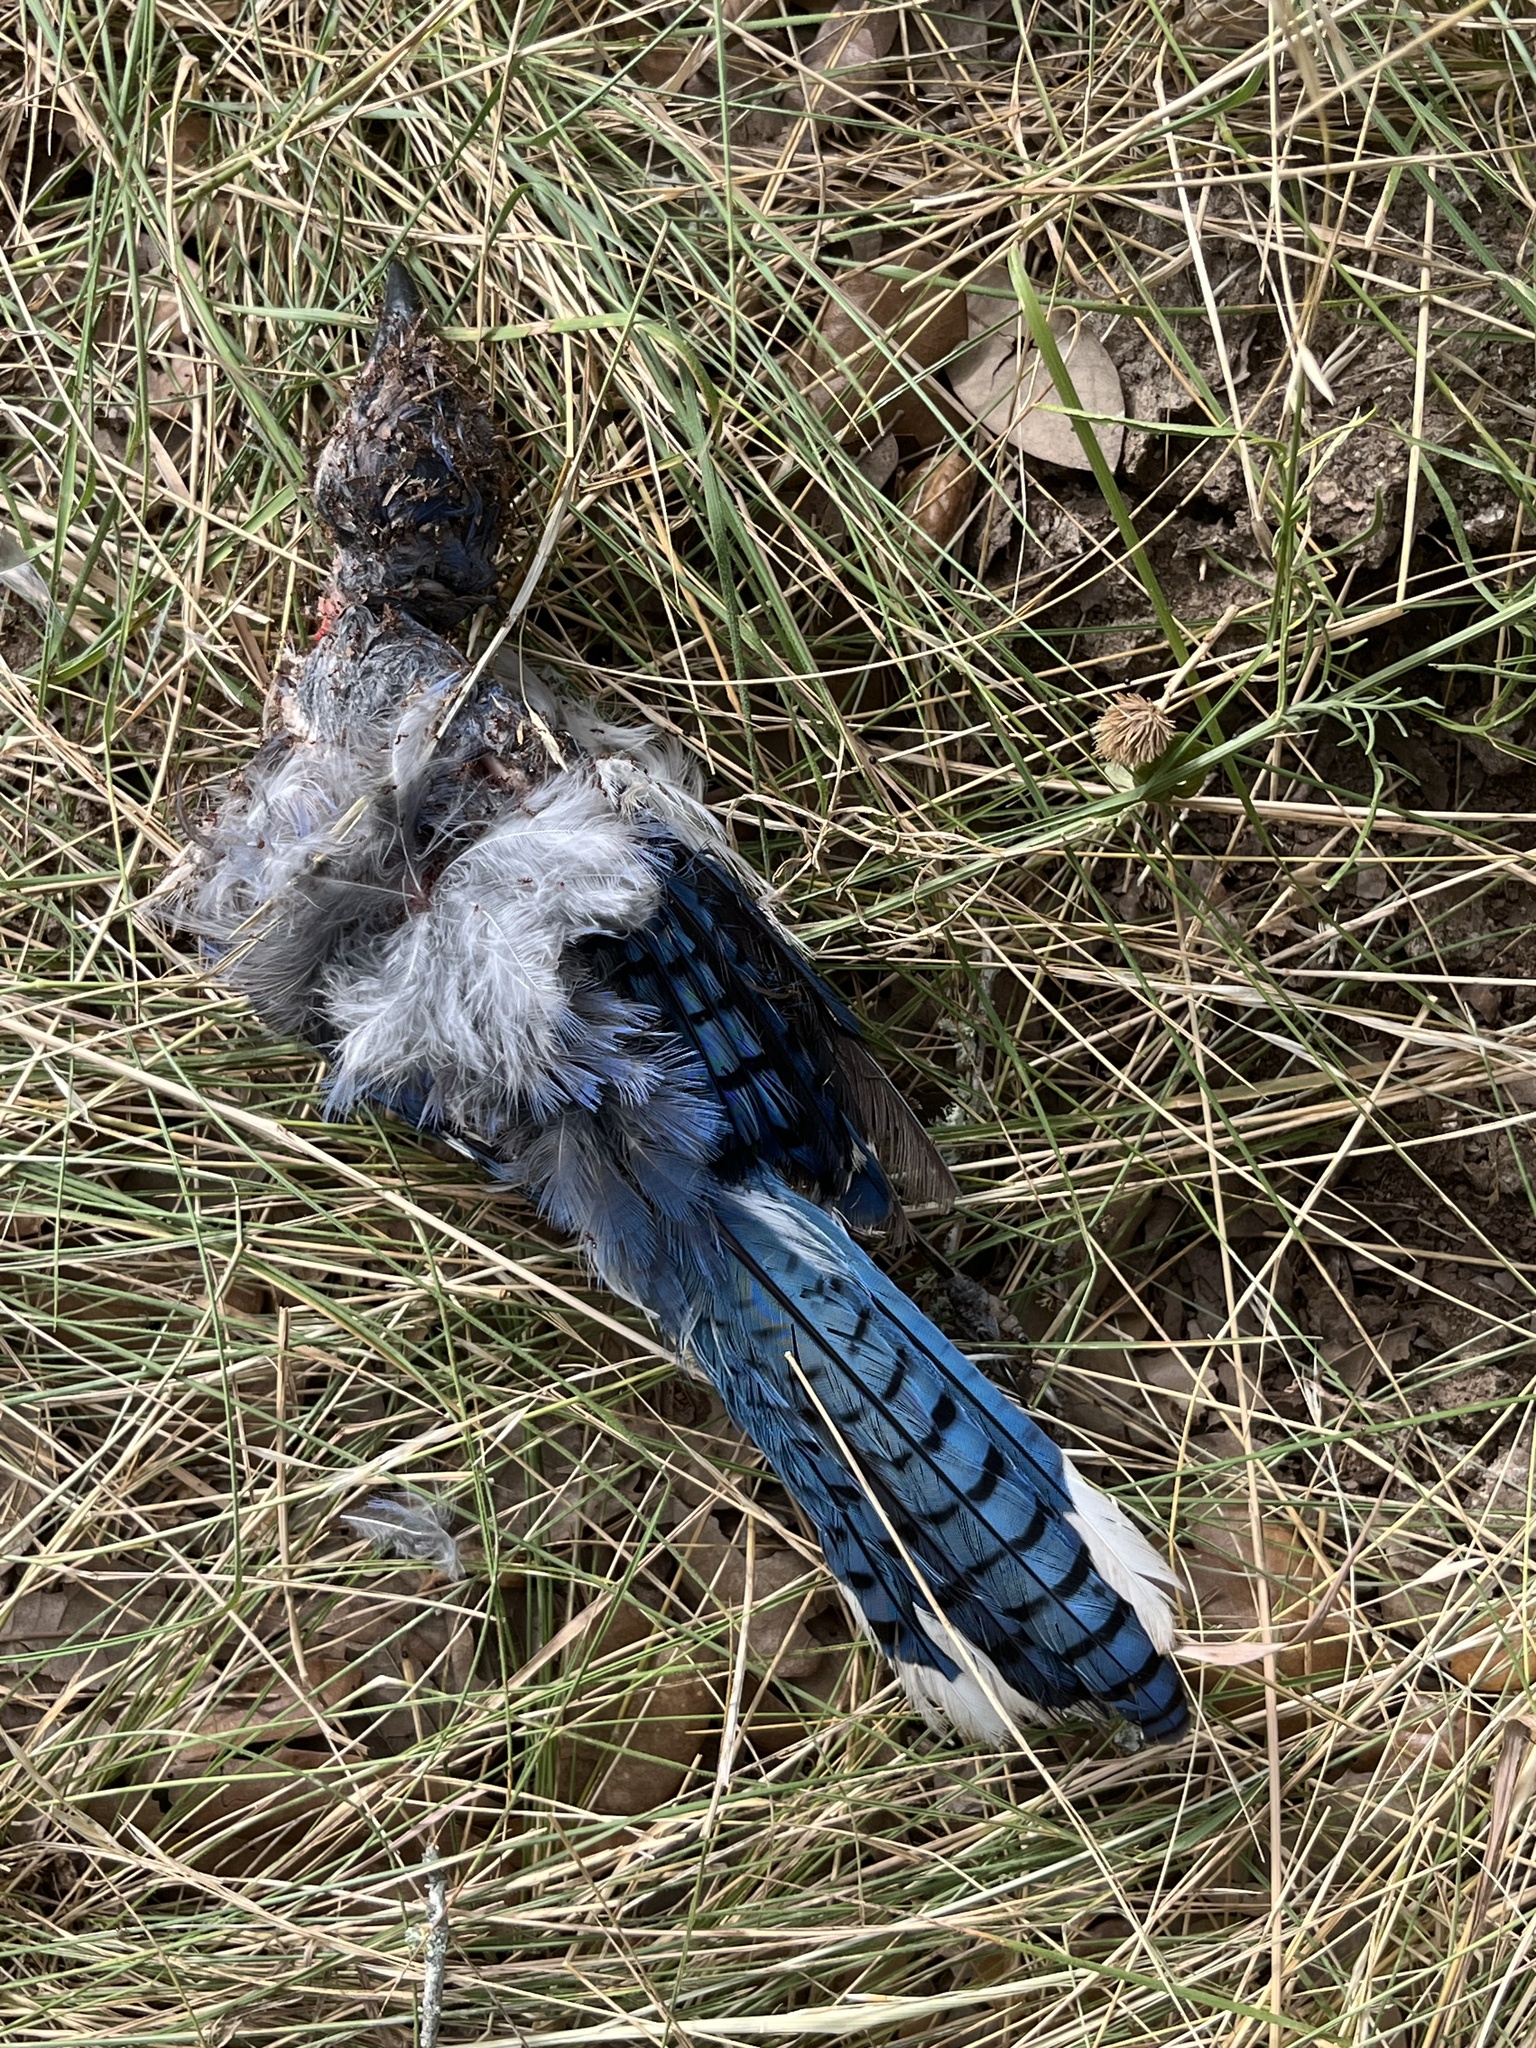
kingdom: Animalia
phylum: Chordata
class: Aves
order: Passeriformes
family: Corvidae
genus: Cyanocitta
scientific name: Cyanocitta cristata
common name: Blue jay
